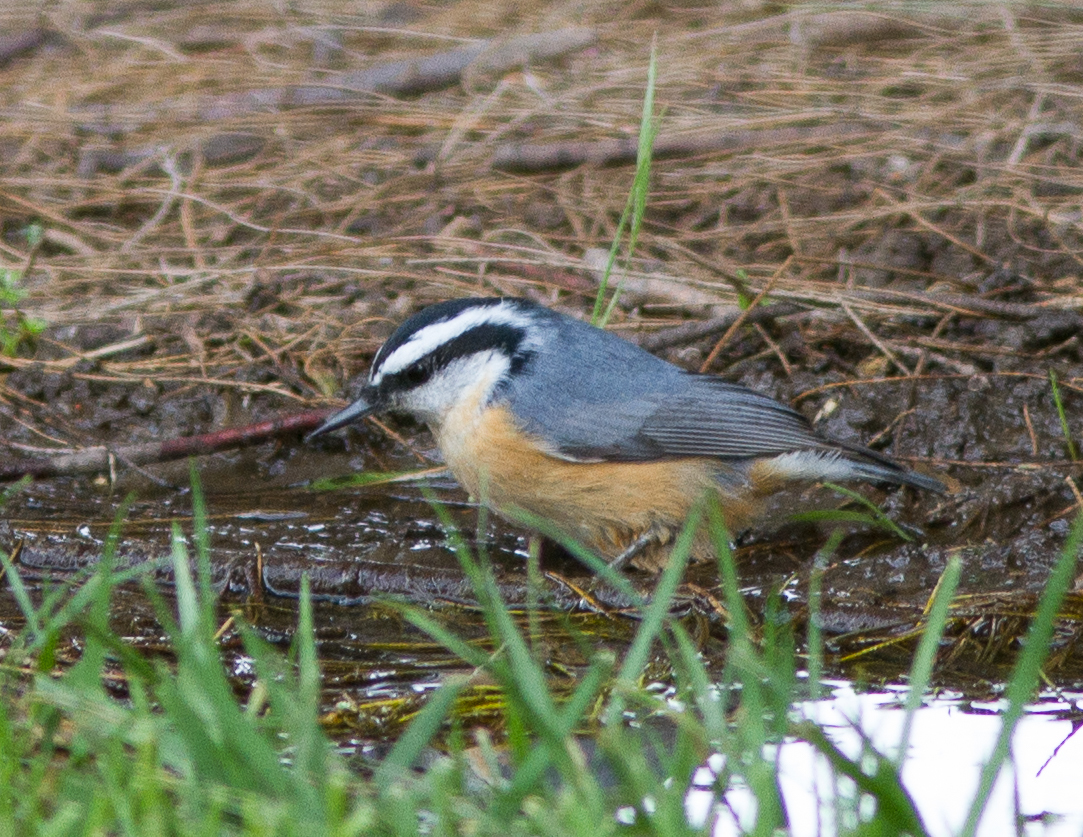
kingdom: Animalia
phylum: Chordata
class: Aves
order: Passeriformes
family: Sittidae
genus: Sitta
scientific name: Sitta canadensis
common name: Red-breasted nuthatch
